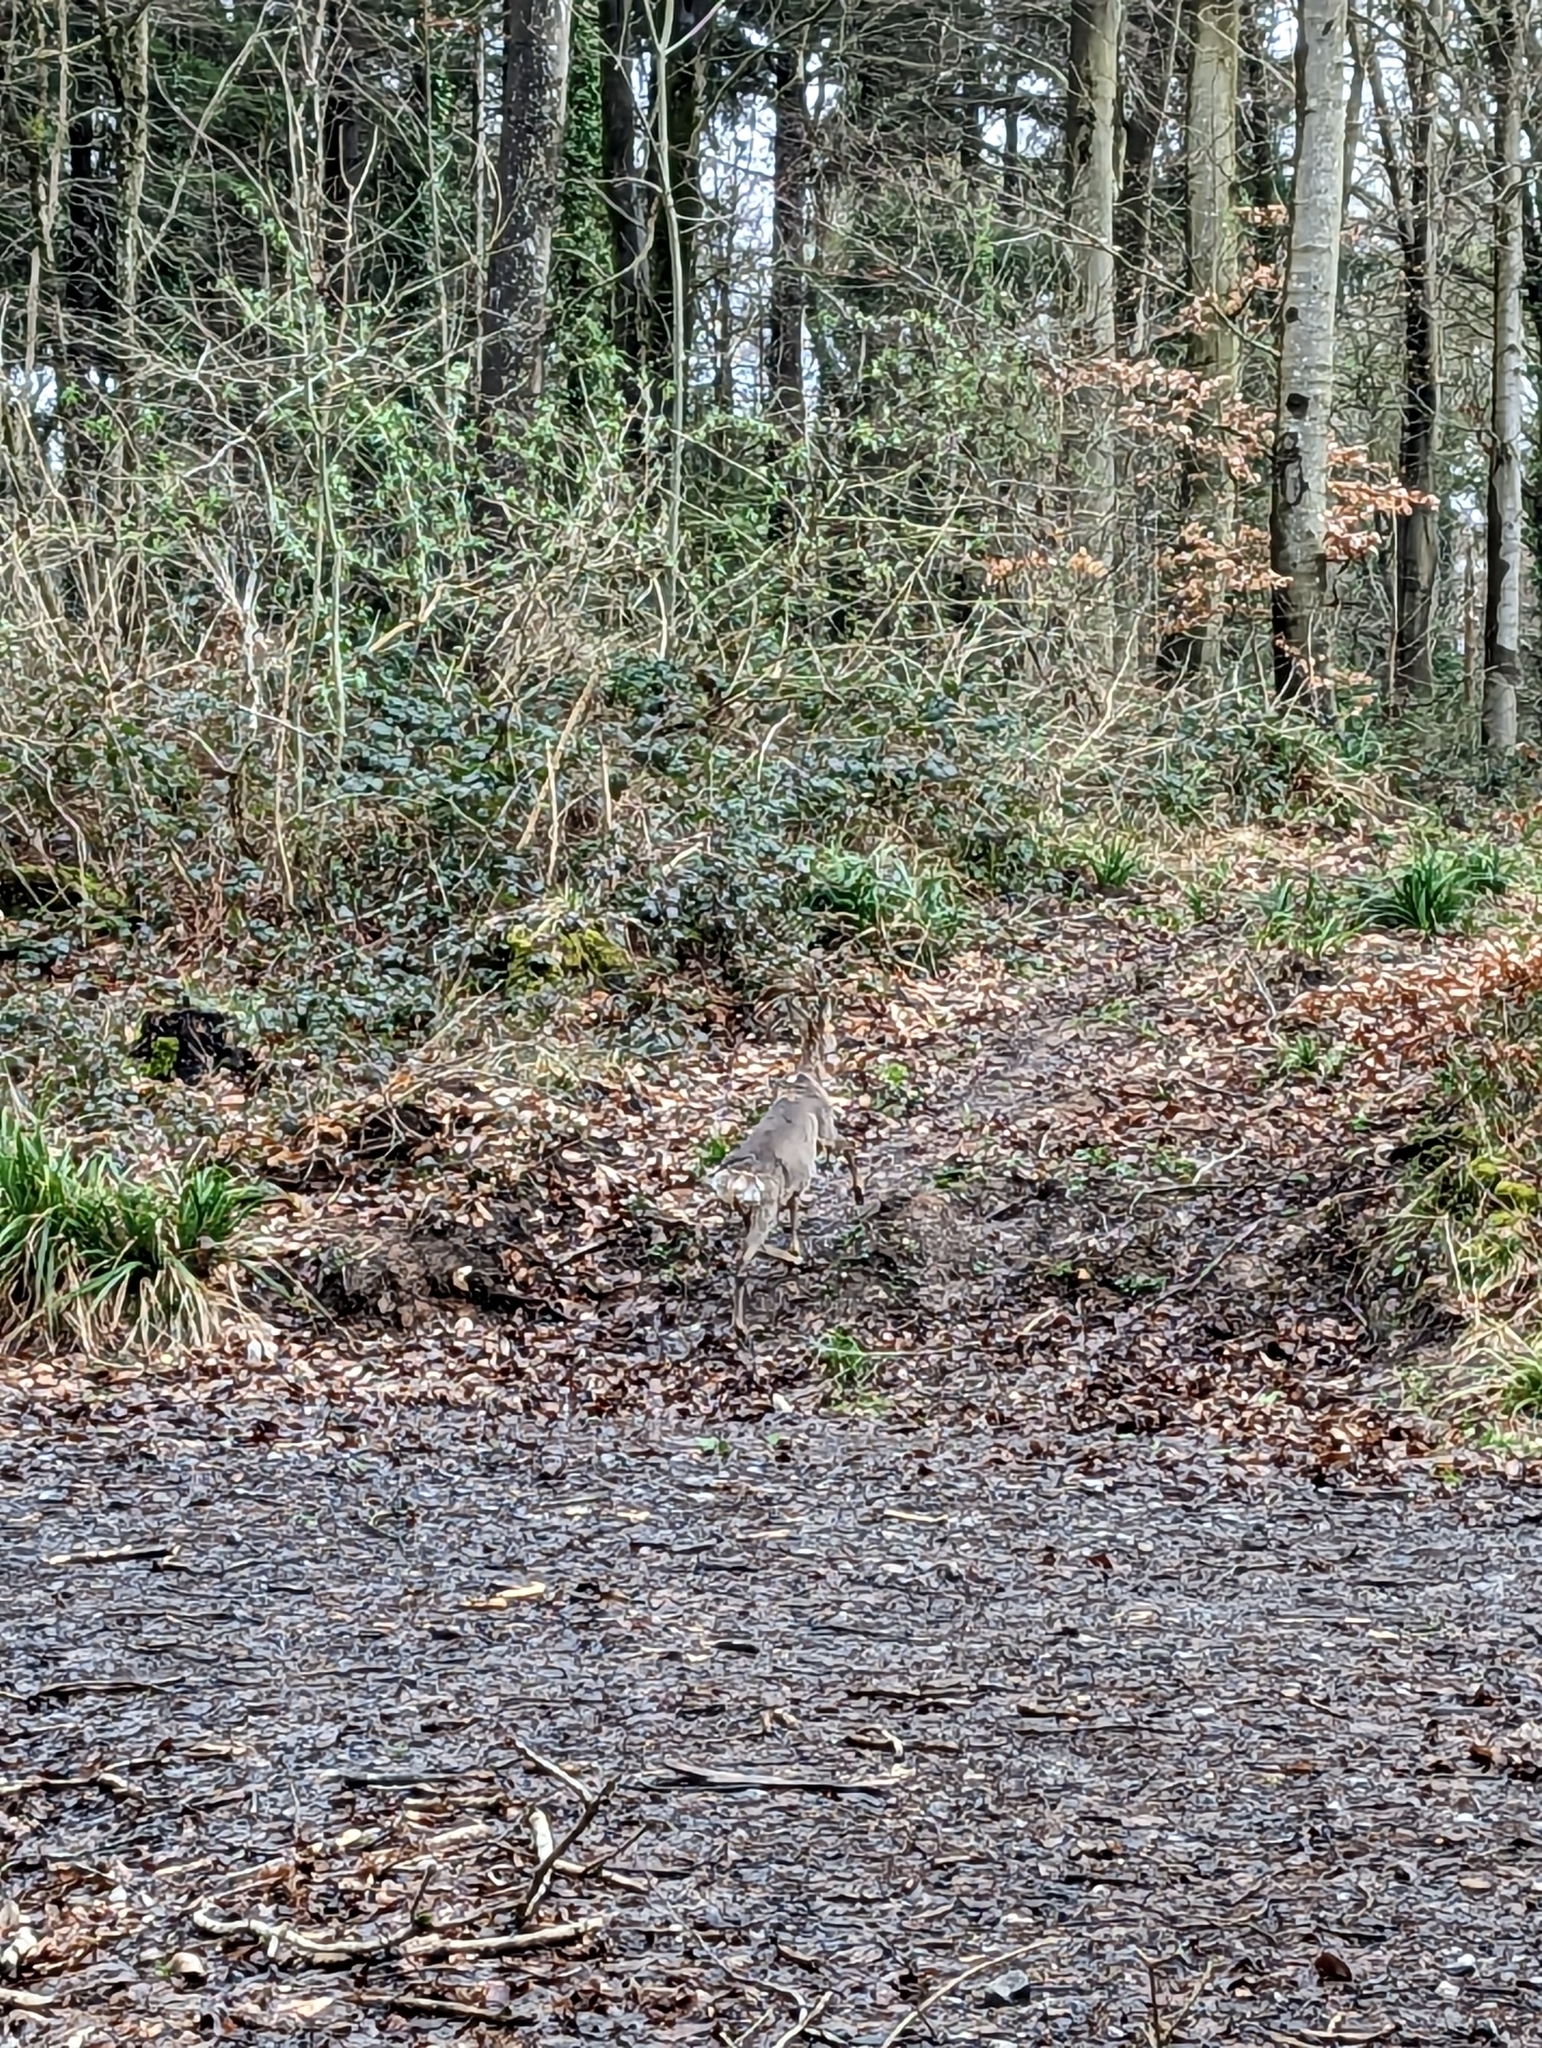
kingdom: Animalia
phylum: Chordata
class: Mammalia
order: Artiodactyla
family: Cervidae
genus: Capreolus
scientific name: Capreolus capreolus
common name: Western roe deer
